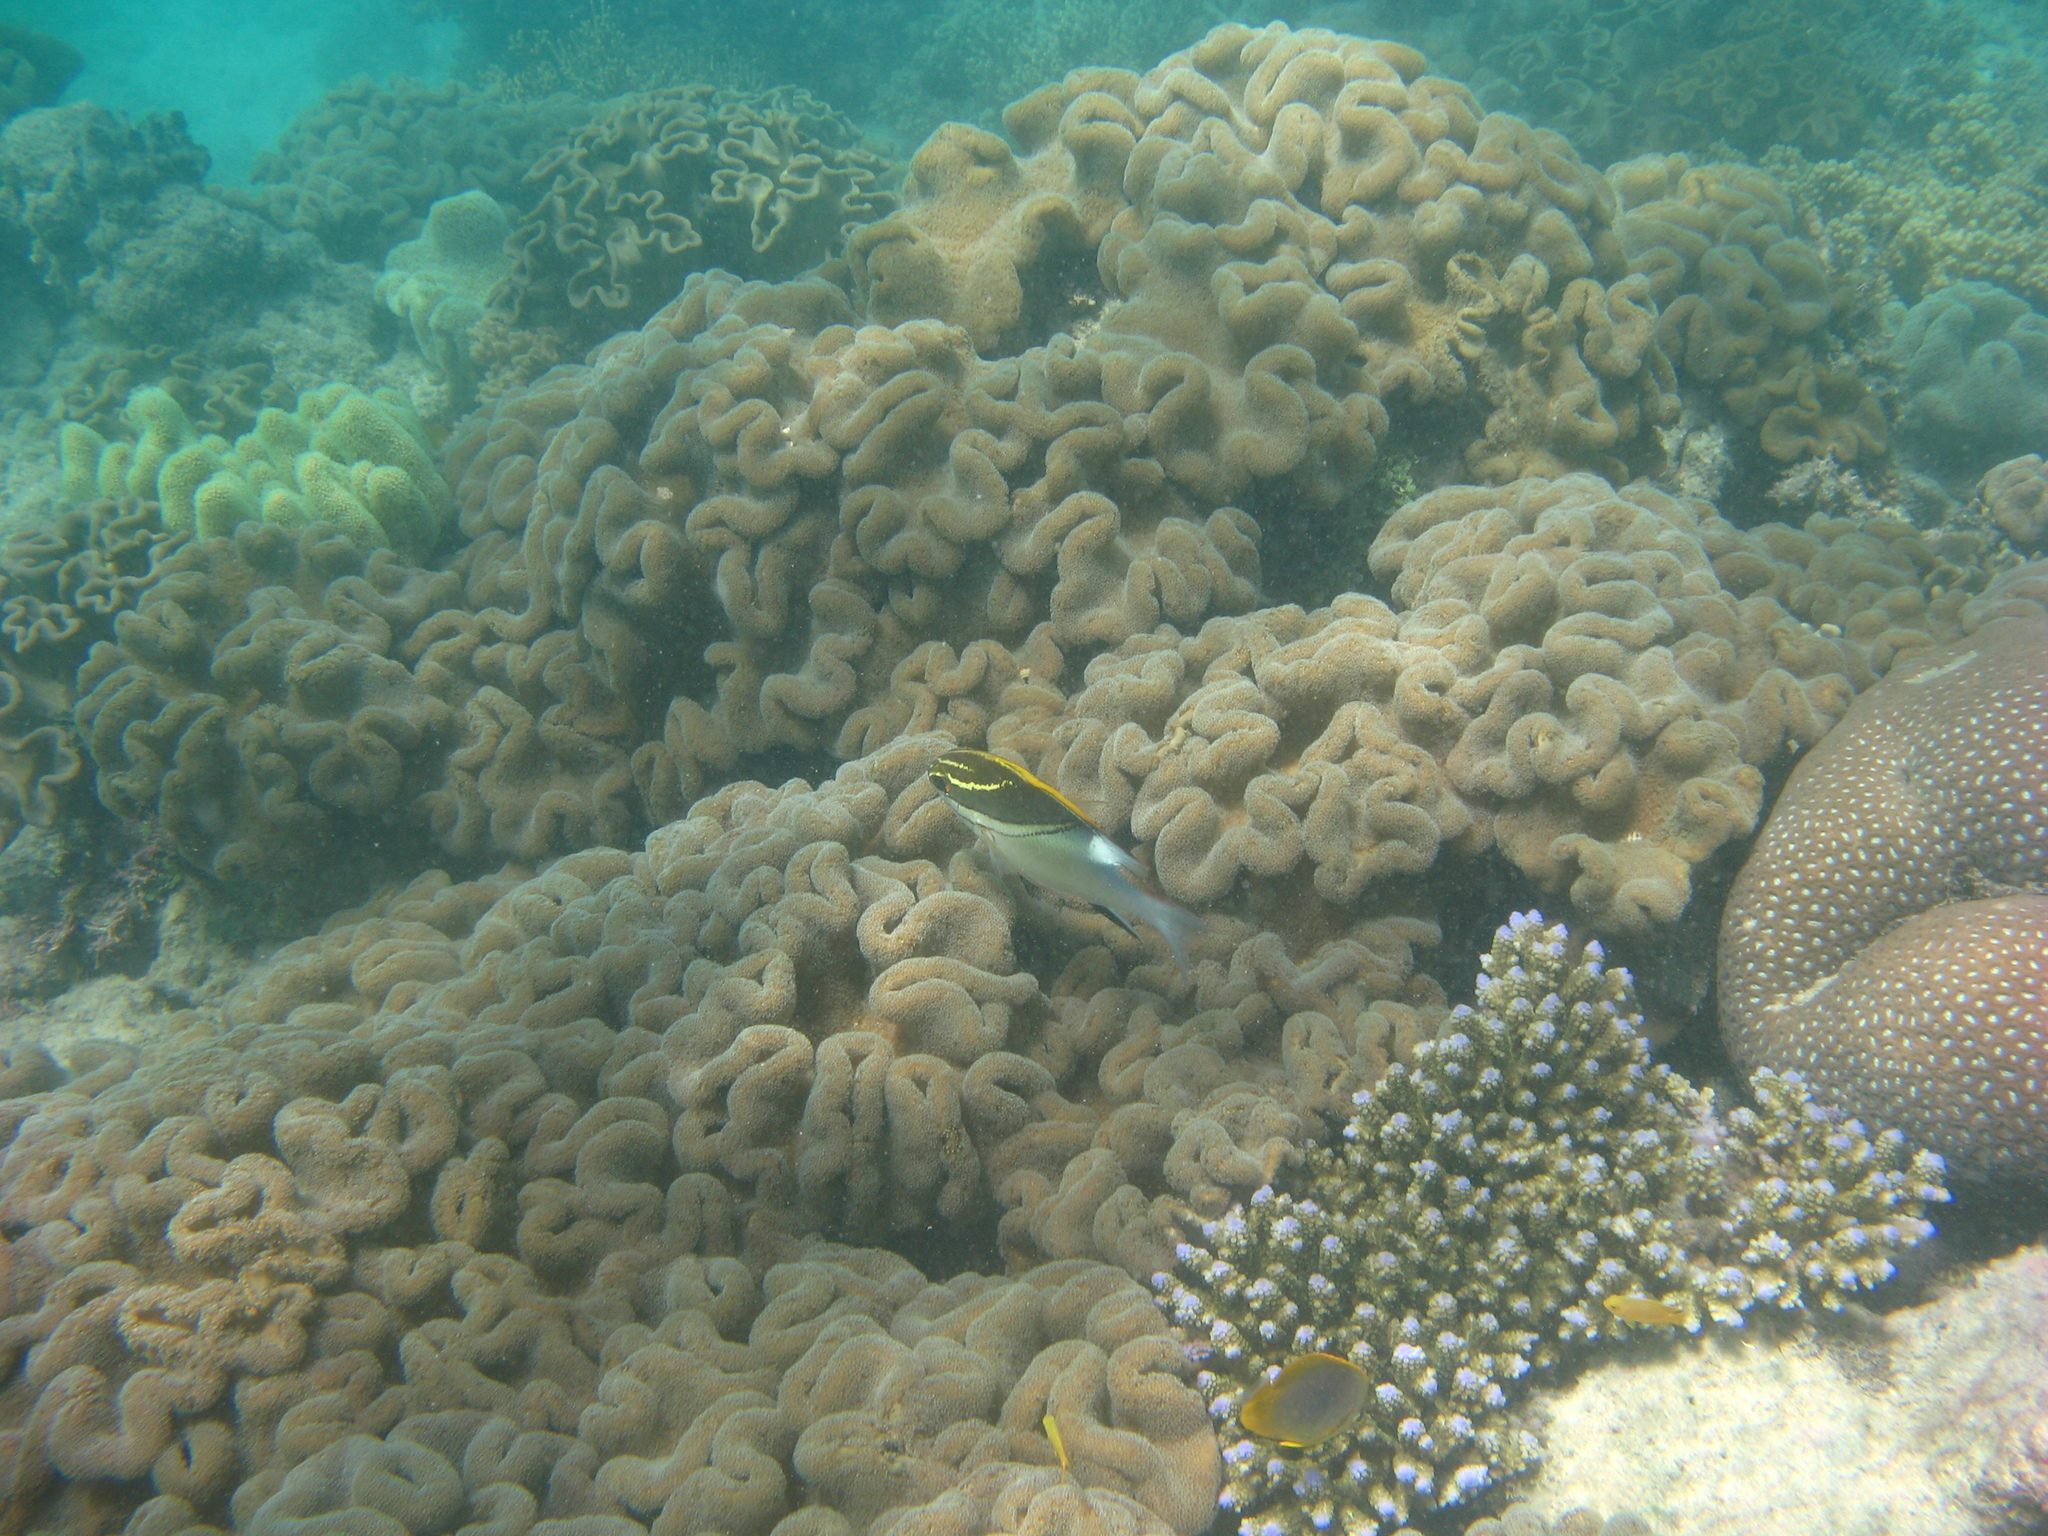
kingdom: Animalia
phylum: Chordata
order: Perciformes
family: Nemipteridae
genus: Scolopsis
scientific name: Scolopsis bilineata
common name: Two-lined monocle bream
